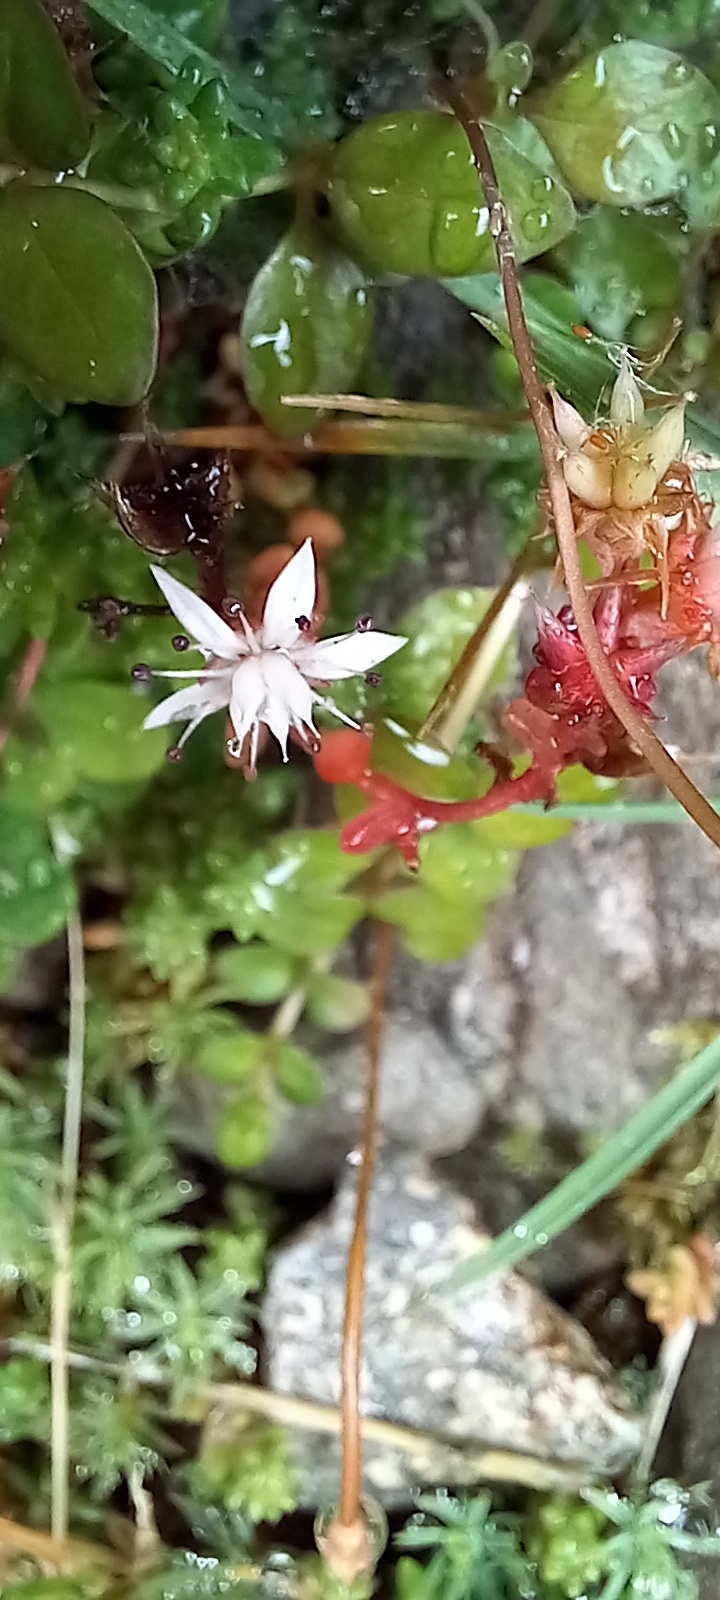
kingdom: Plantae
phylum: Tracheophyta
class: Magnoliopsida
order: Saxifragales
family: Crassulaceae
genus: Sedum
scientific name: Sedum anglicum
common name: English stonecrop
